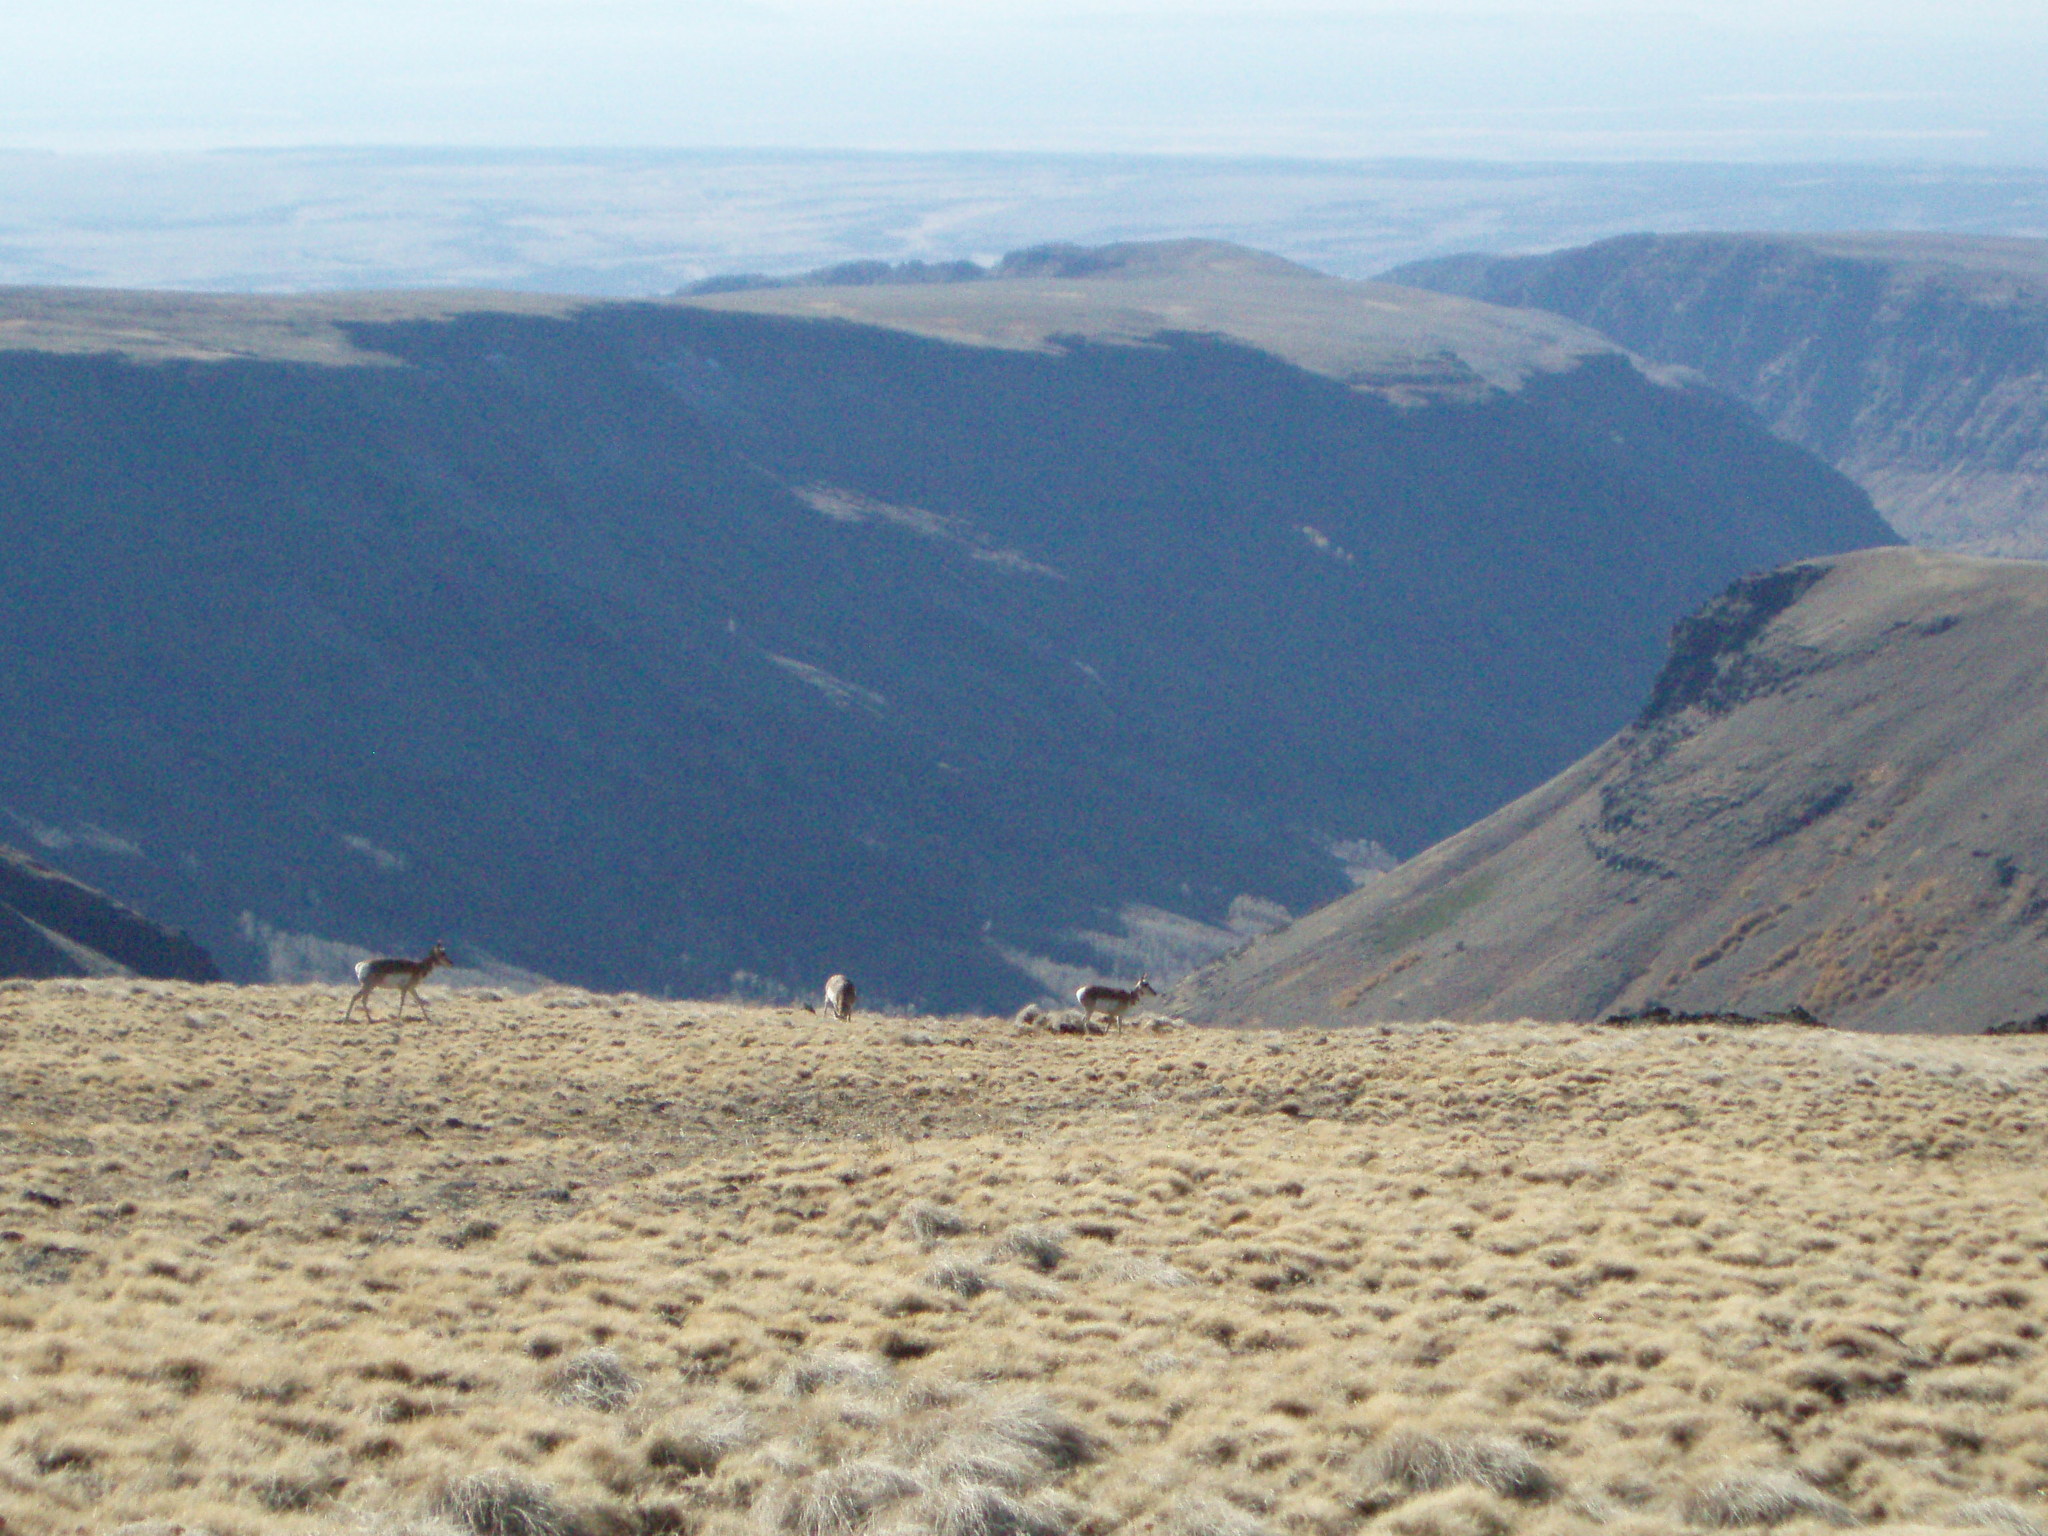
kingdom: Animalia
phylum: Chordata
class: Mammalia
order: Artiodactyla
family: Antilocapridae
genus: Antilocapra
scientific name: Antilocapra americana
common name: Pronghorn
